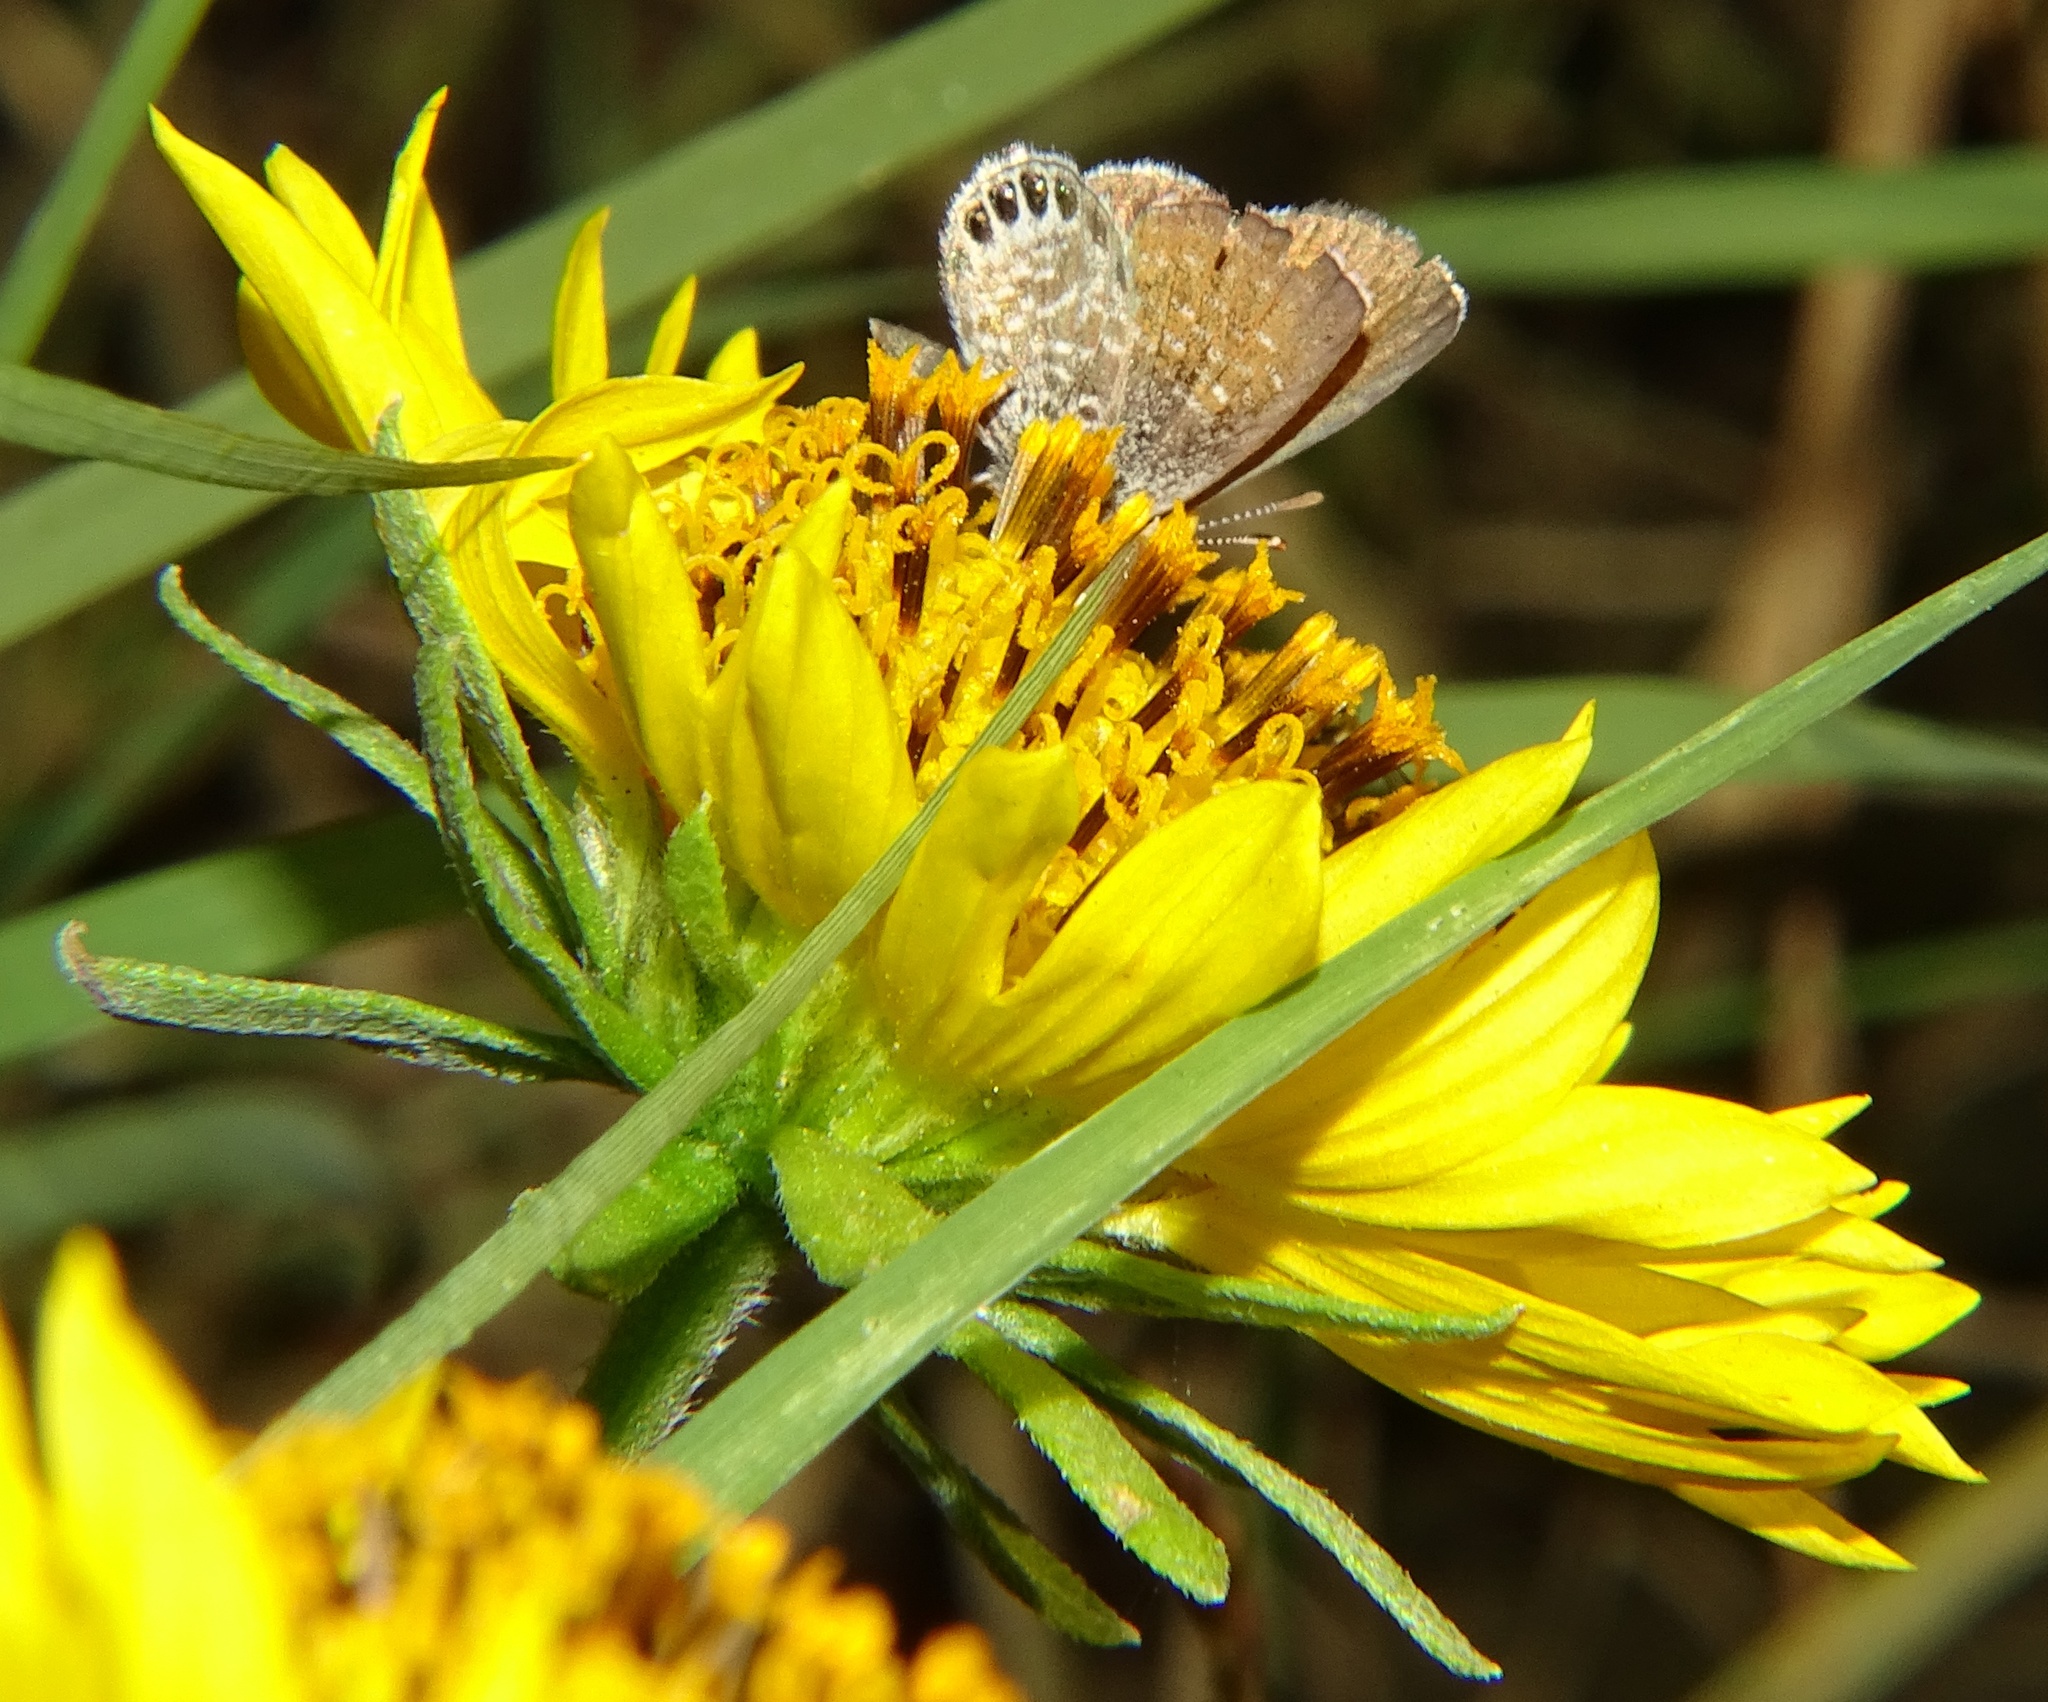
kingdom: Animalia
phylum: Arthropoda
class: Insecta
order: Lepidoptera
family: Lycaenidae
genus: Brephidium
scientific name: Brephidium exilis
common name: Pygmy blue
